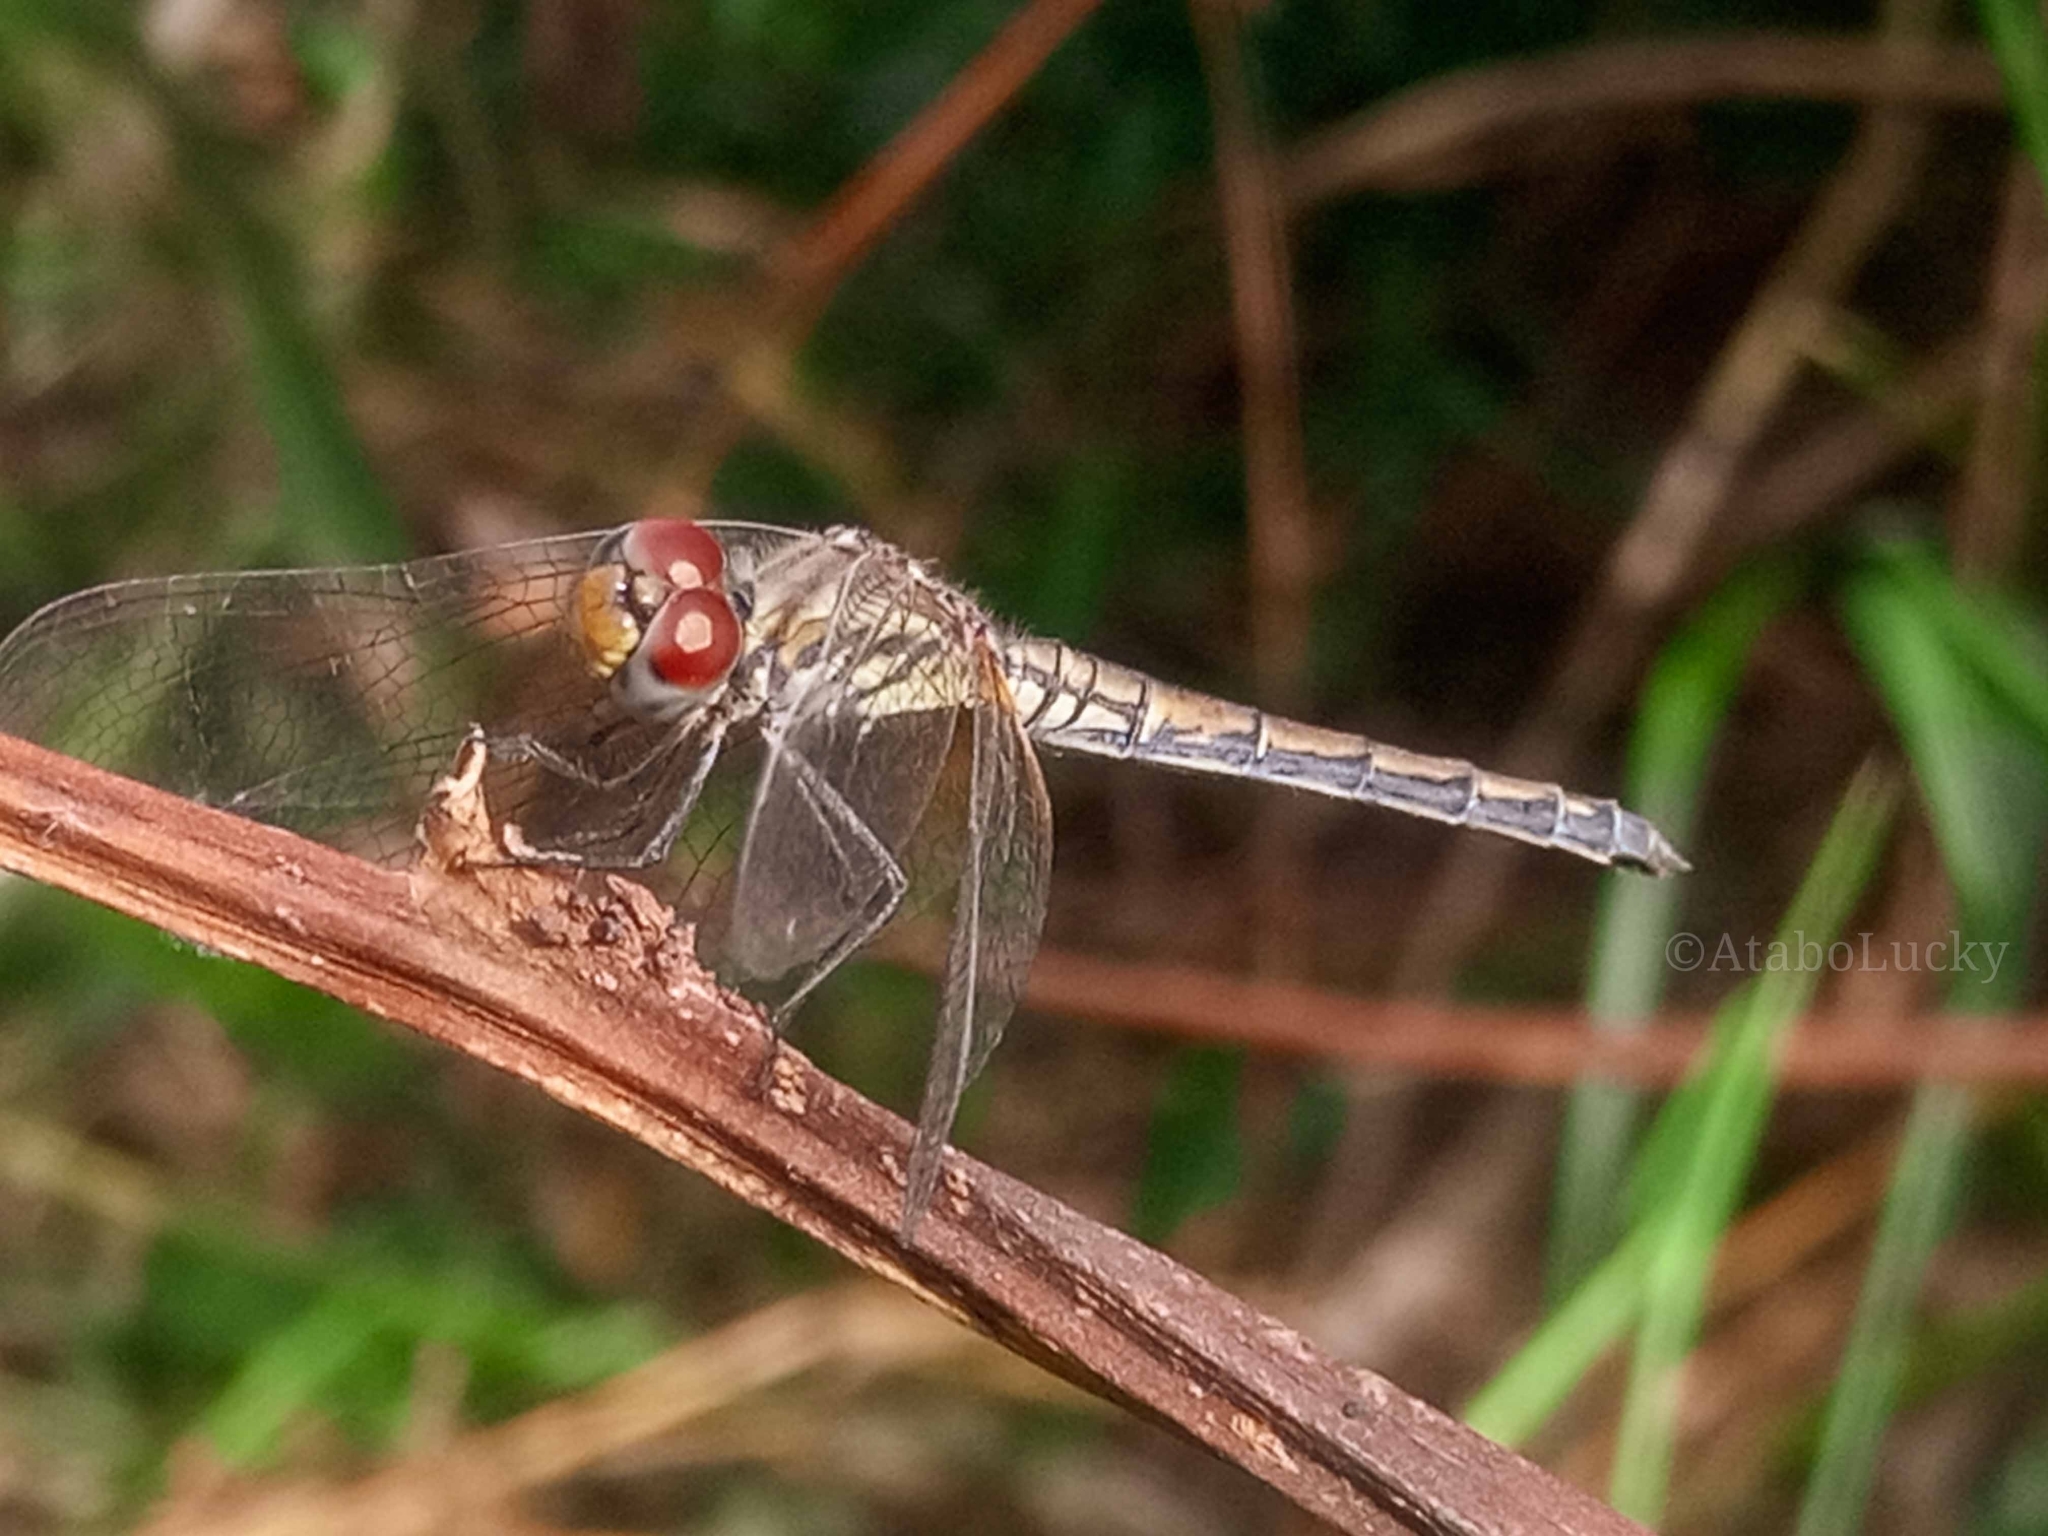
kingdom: Animalia
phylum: Arthropoda
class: Insecta
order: Odonata
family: Libellulidae
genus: Trithemis
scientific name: Trithemis arteriosa
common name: Red-veined dropwing
